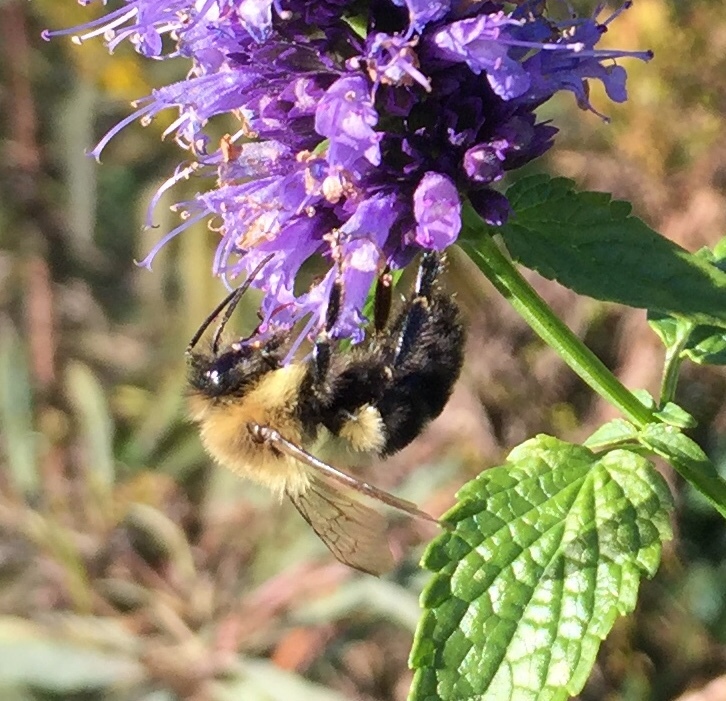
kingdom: Animalia
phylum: Arthropoda
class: Insecta
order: Hymenoptera
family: Apidae
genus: Bombus
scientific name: Bombus impatiens
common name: Common eastern bumble bee
